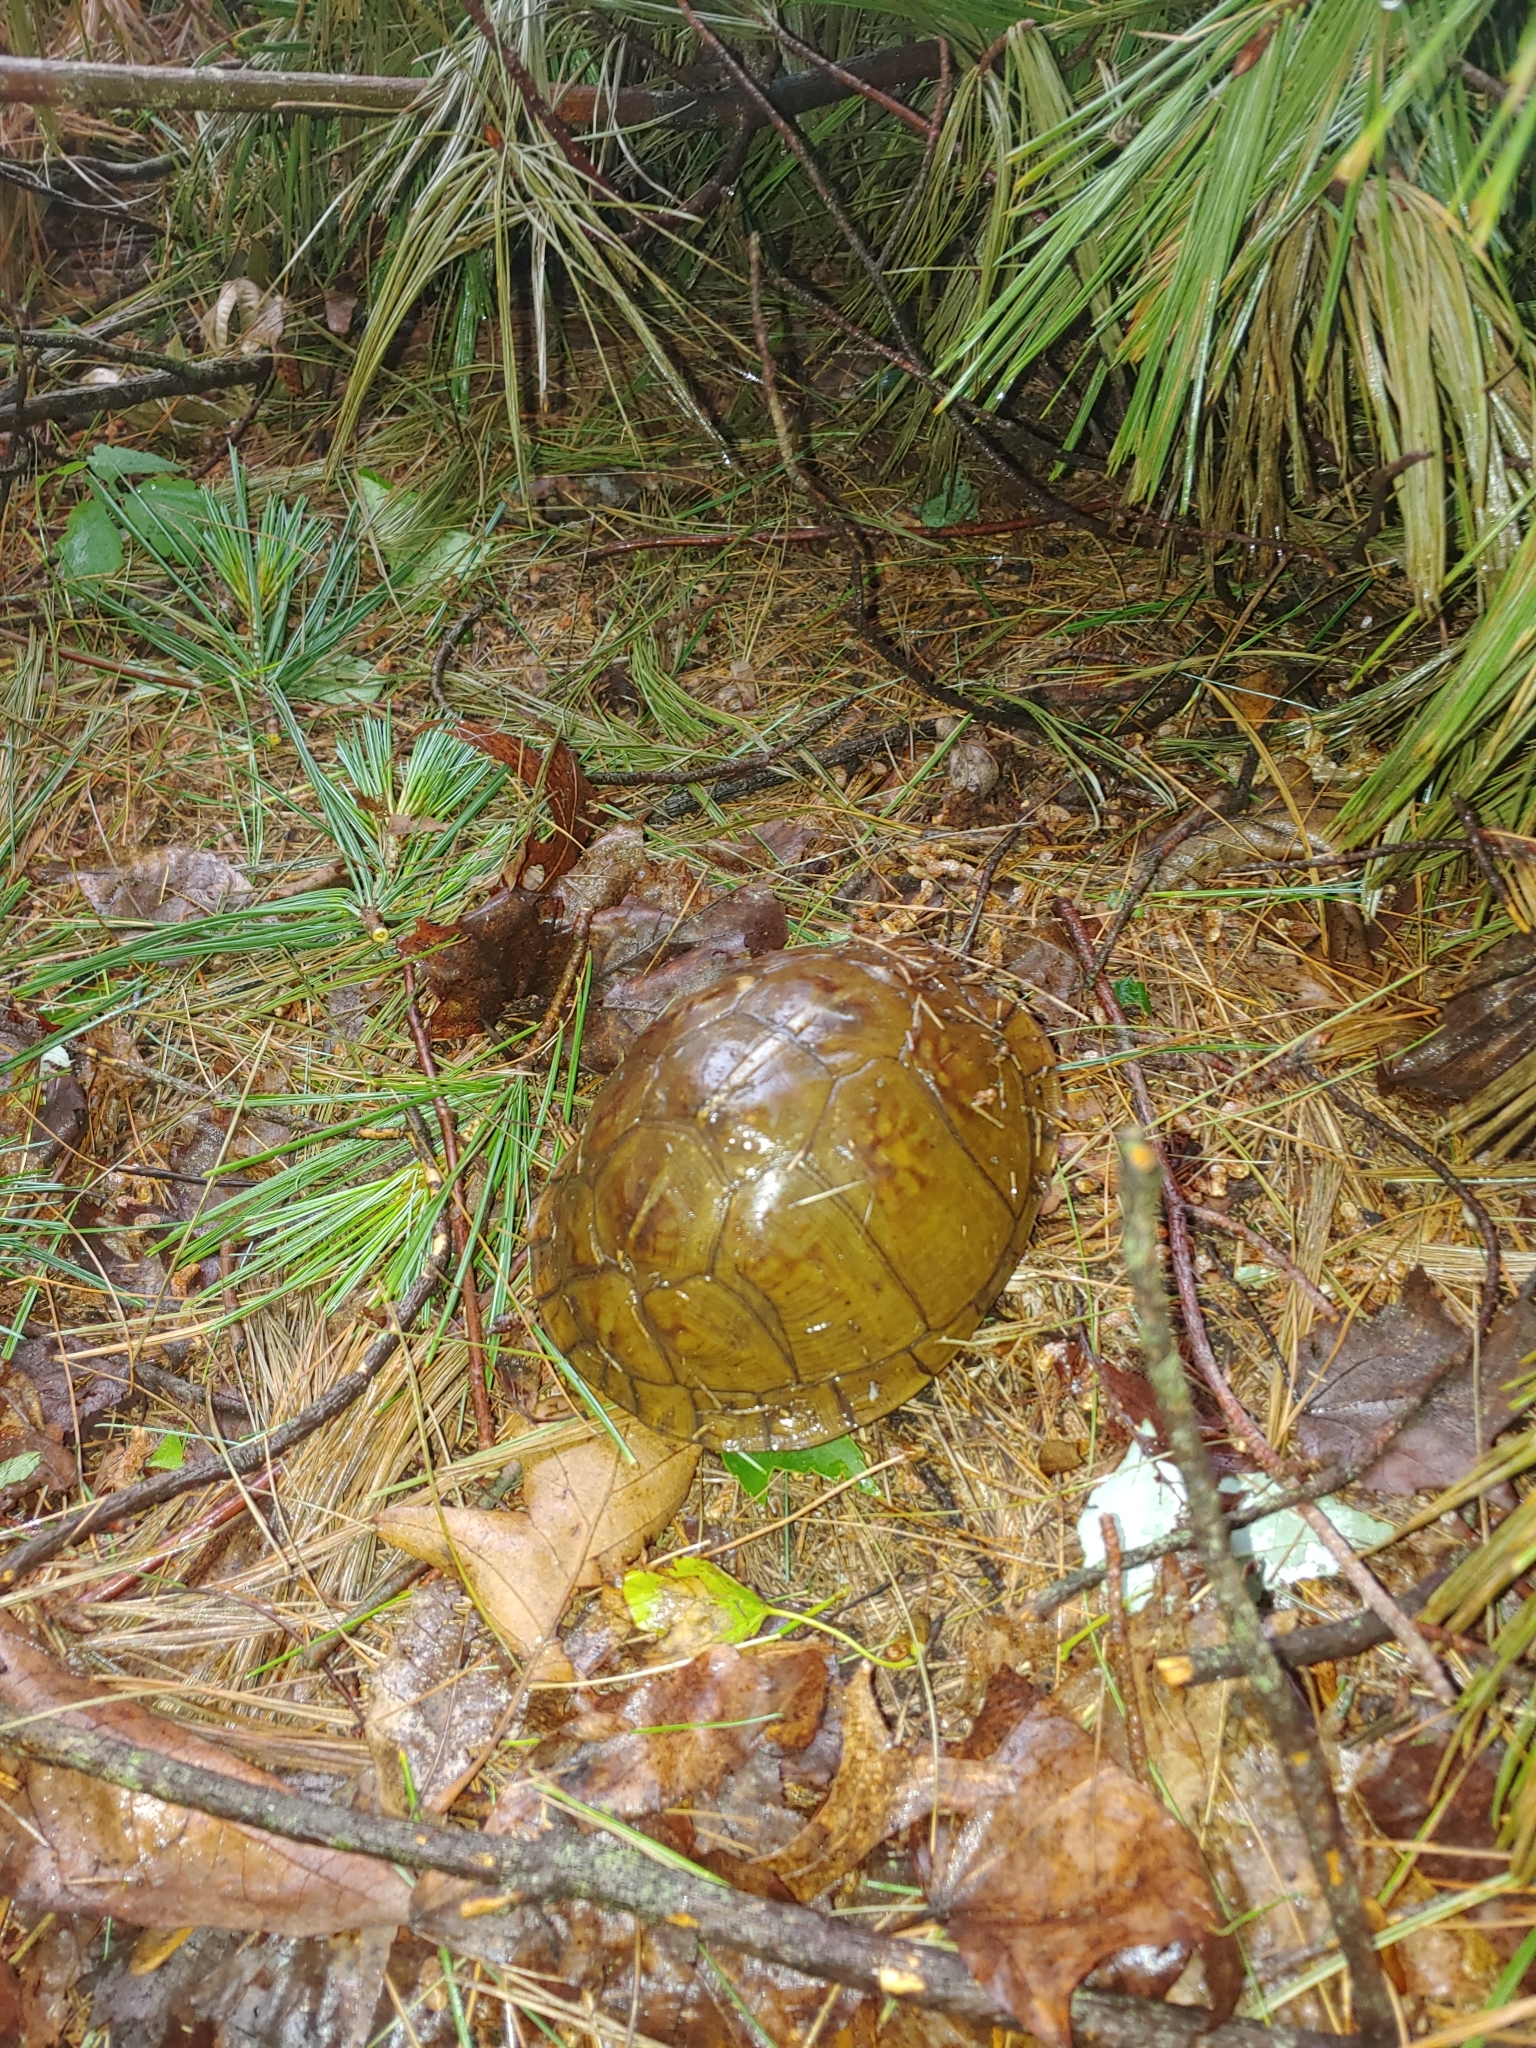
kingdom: Animalia
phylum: Chordata
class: Testudines
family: Emydidae
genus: Terrapene
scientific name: Terrapene carolina
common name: Common box turtle
